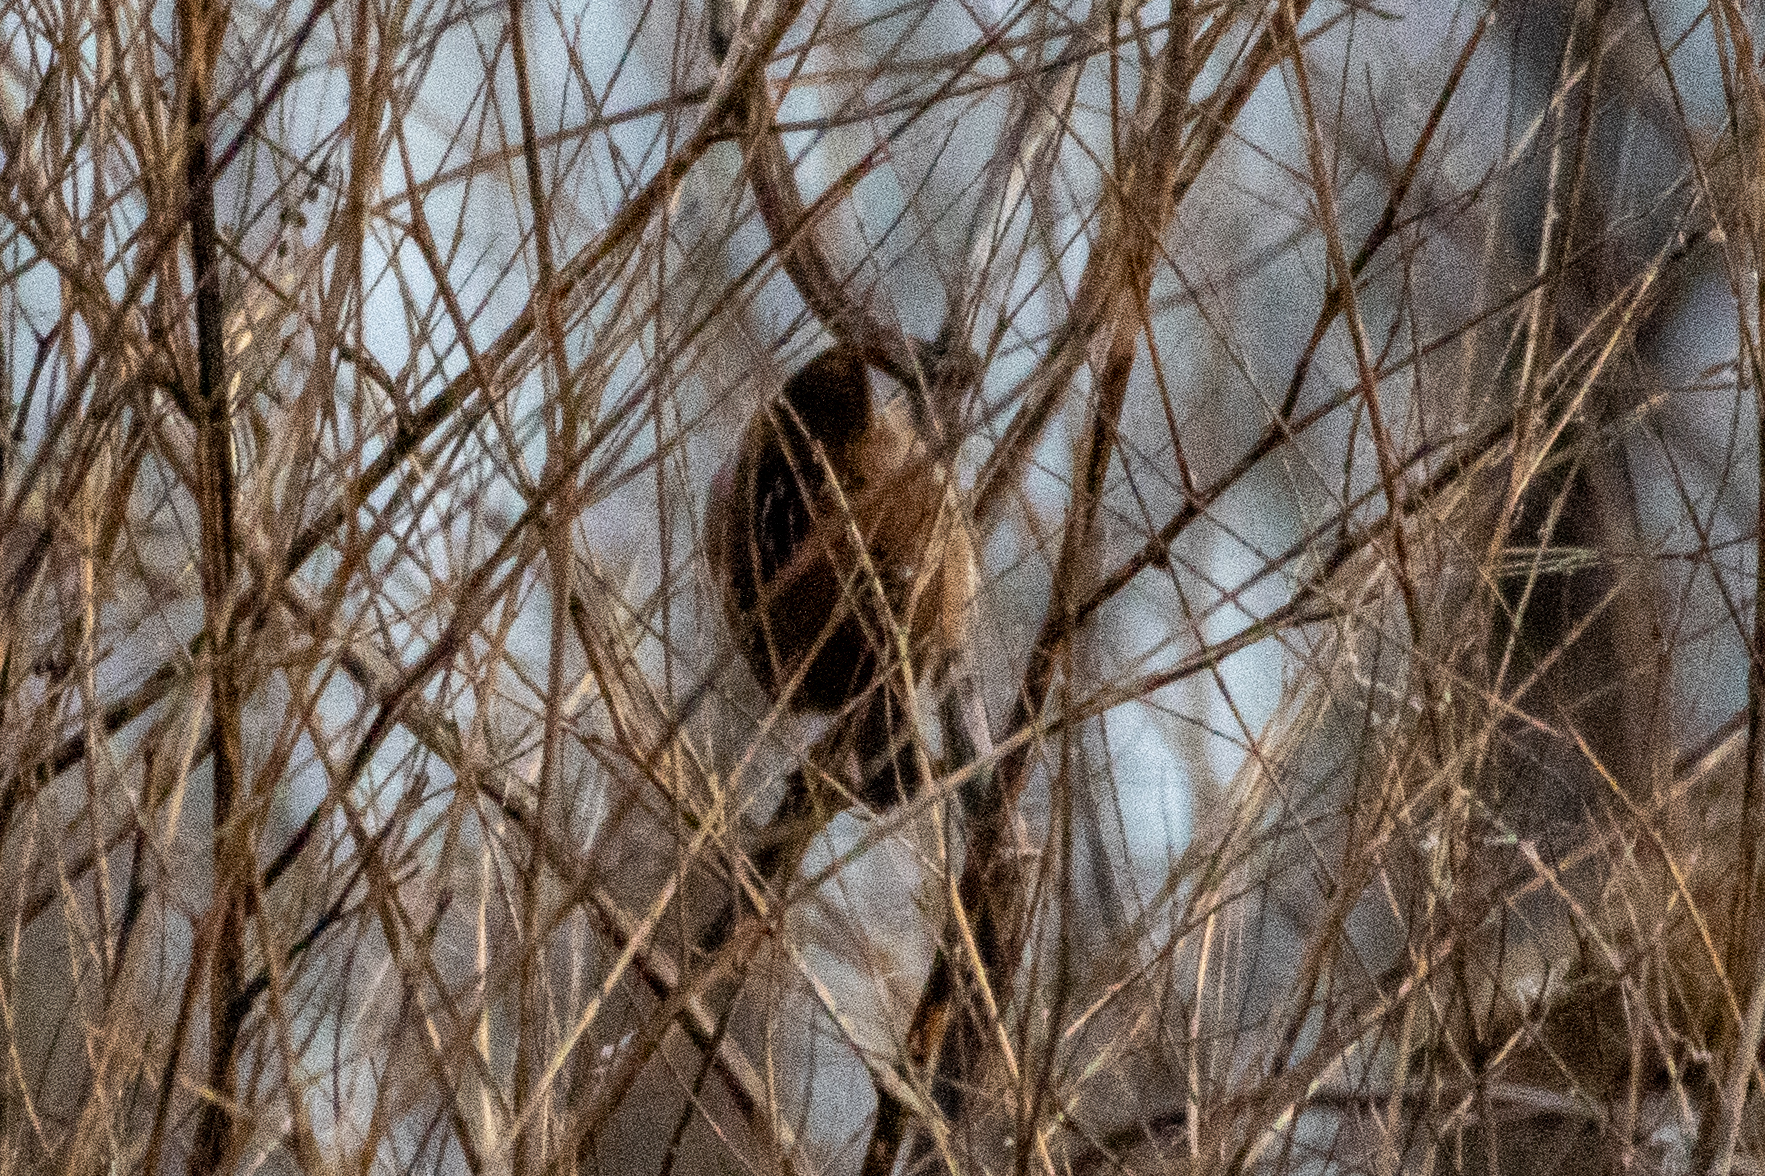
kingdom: Animalia
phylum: Chordata
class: Aves
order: Passeriformes
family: Troglodytidae
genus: Cistothorus
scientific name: Cistothorus palustris
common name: Marsh wren
